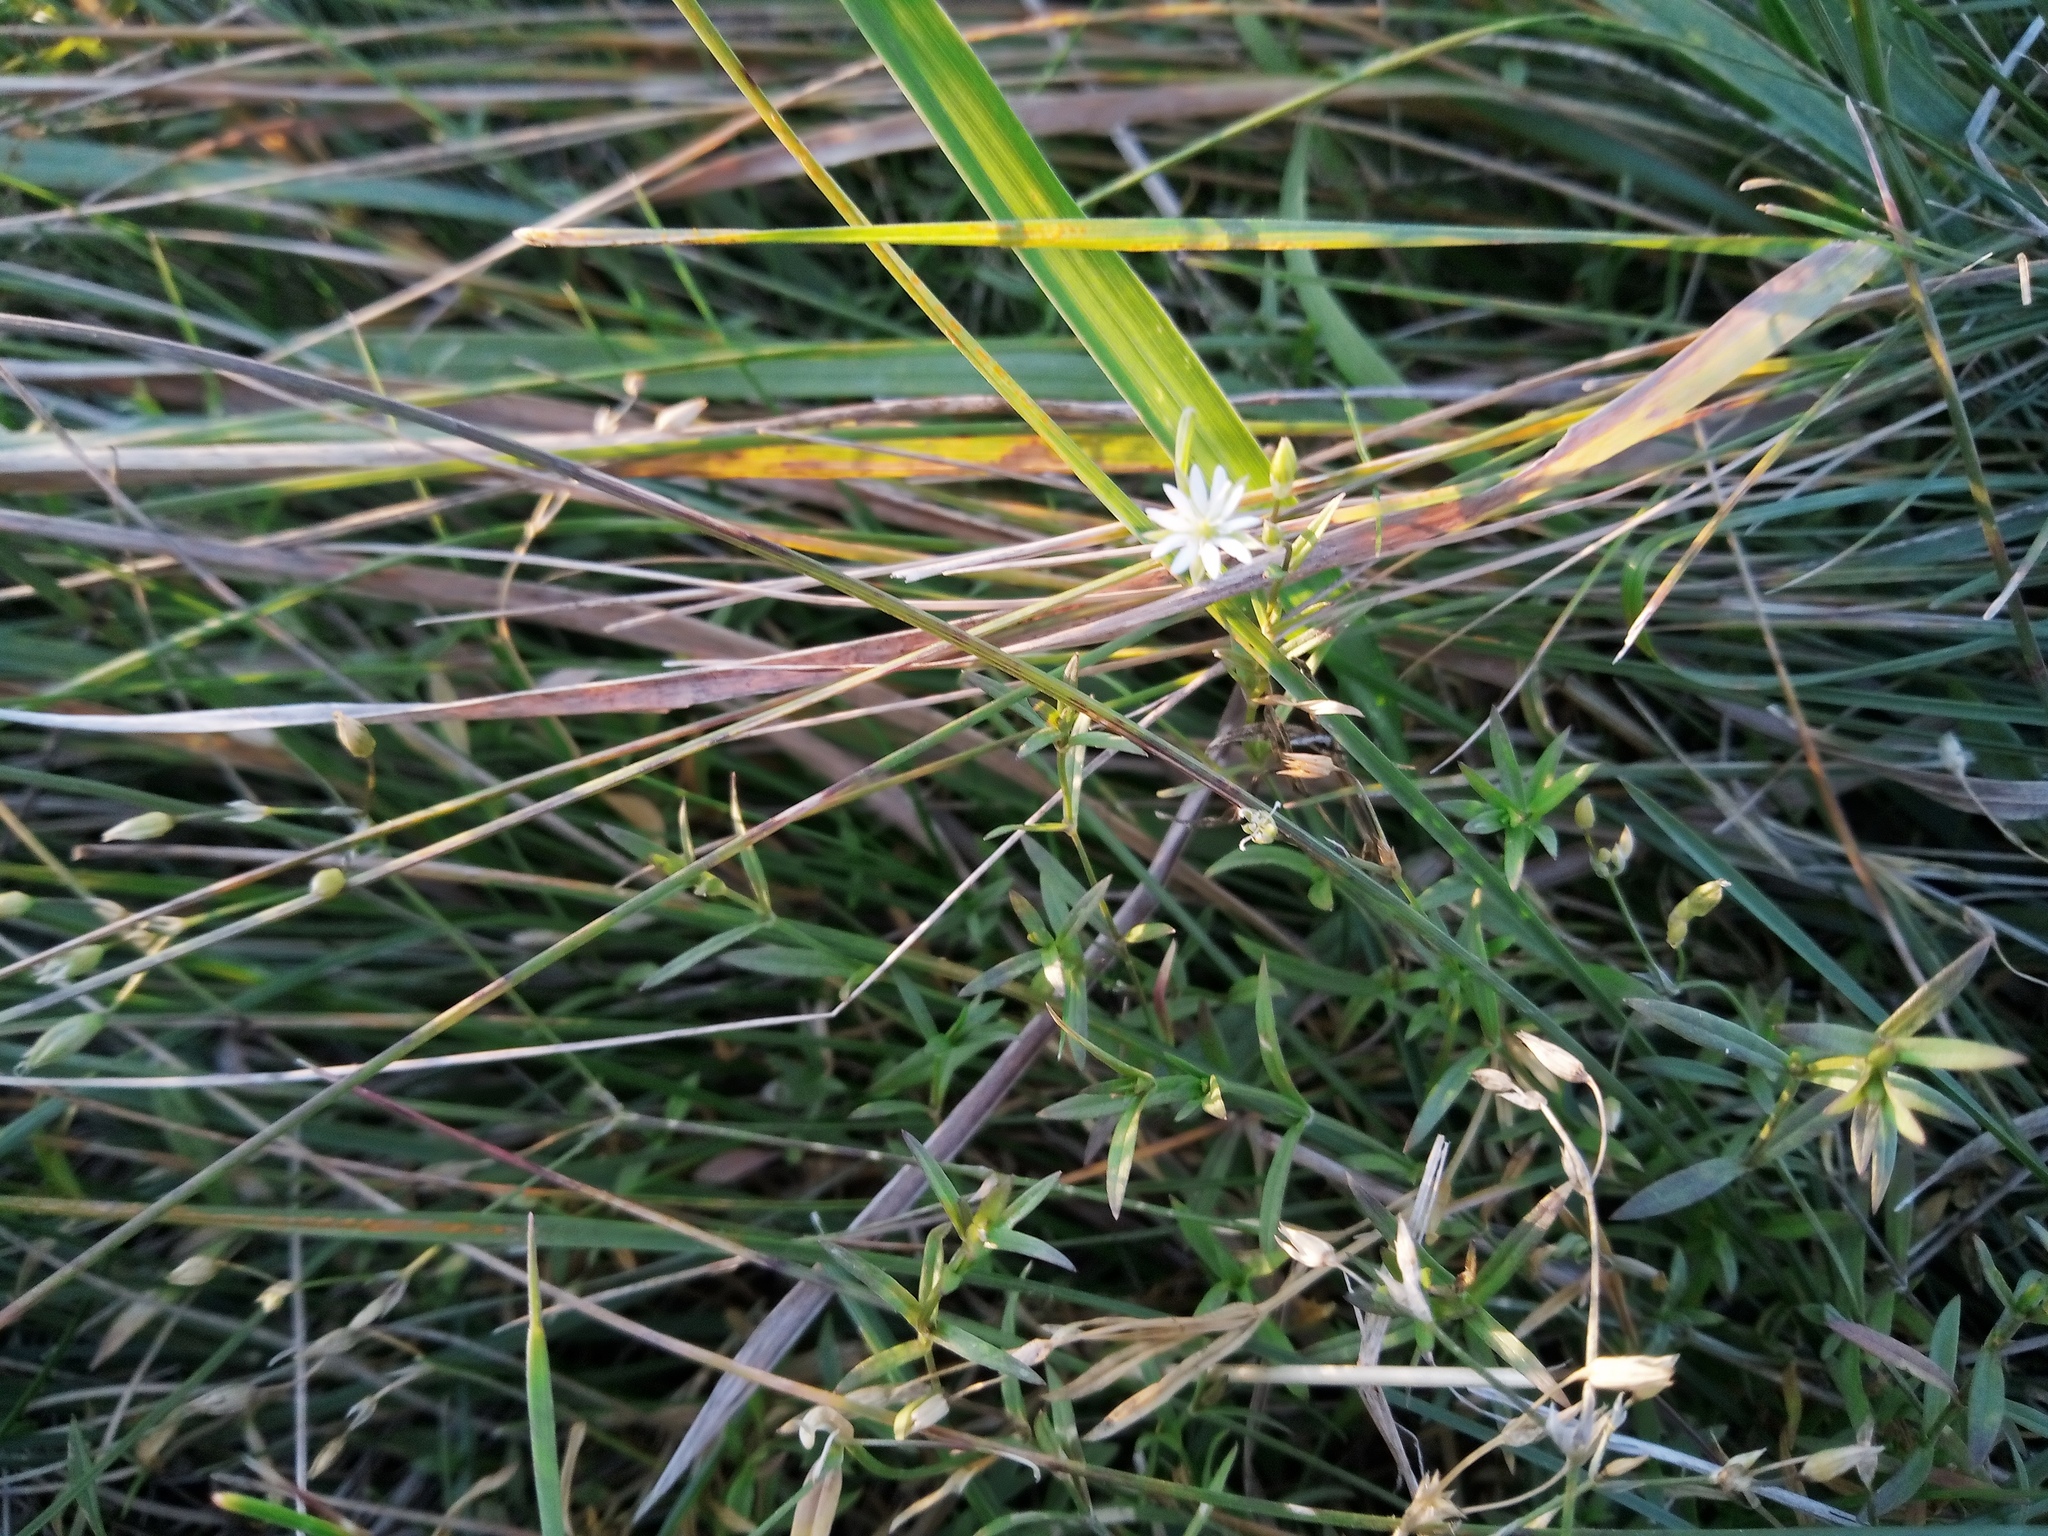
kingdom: Plantae
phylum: Tracheophyta
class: Magnoliopsida
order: Caryophyllales
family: Caryophyllaceae
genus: Stellaria
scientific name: Stellaria graminea
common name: Grass-like starwort
